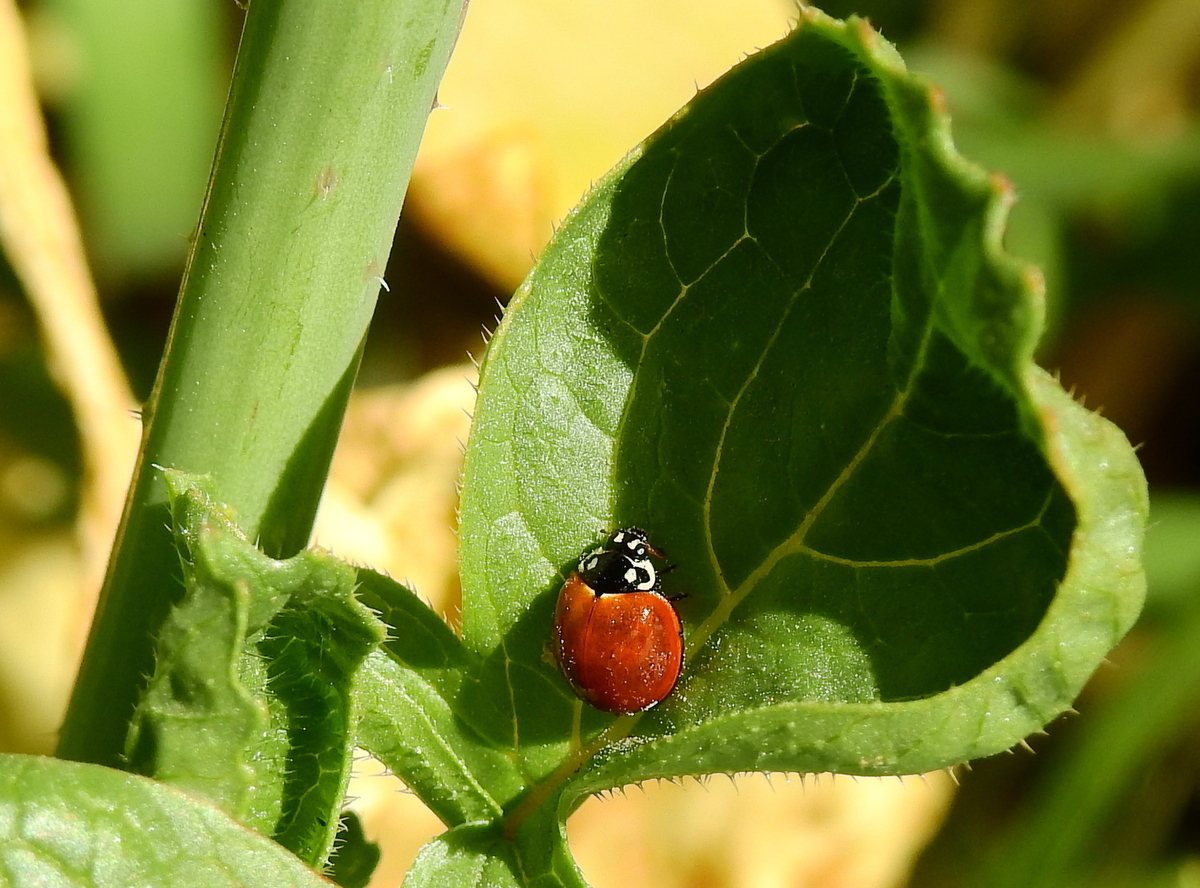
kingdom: Animalia
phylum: Arthropoda
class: Insecta
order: Coleoptera
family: Coccinellidae
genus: Cycloneda
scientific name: Cycloneda sanguinea
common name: Ladybird beetle
